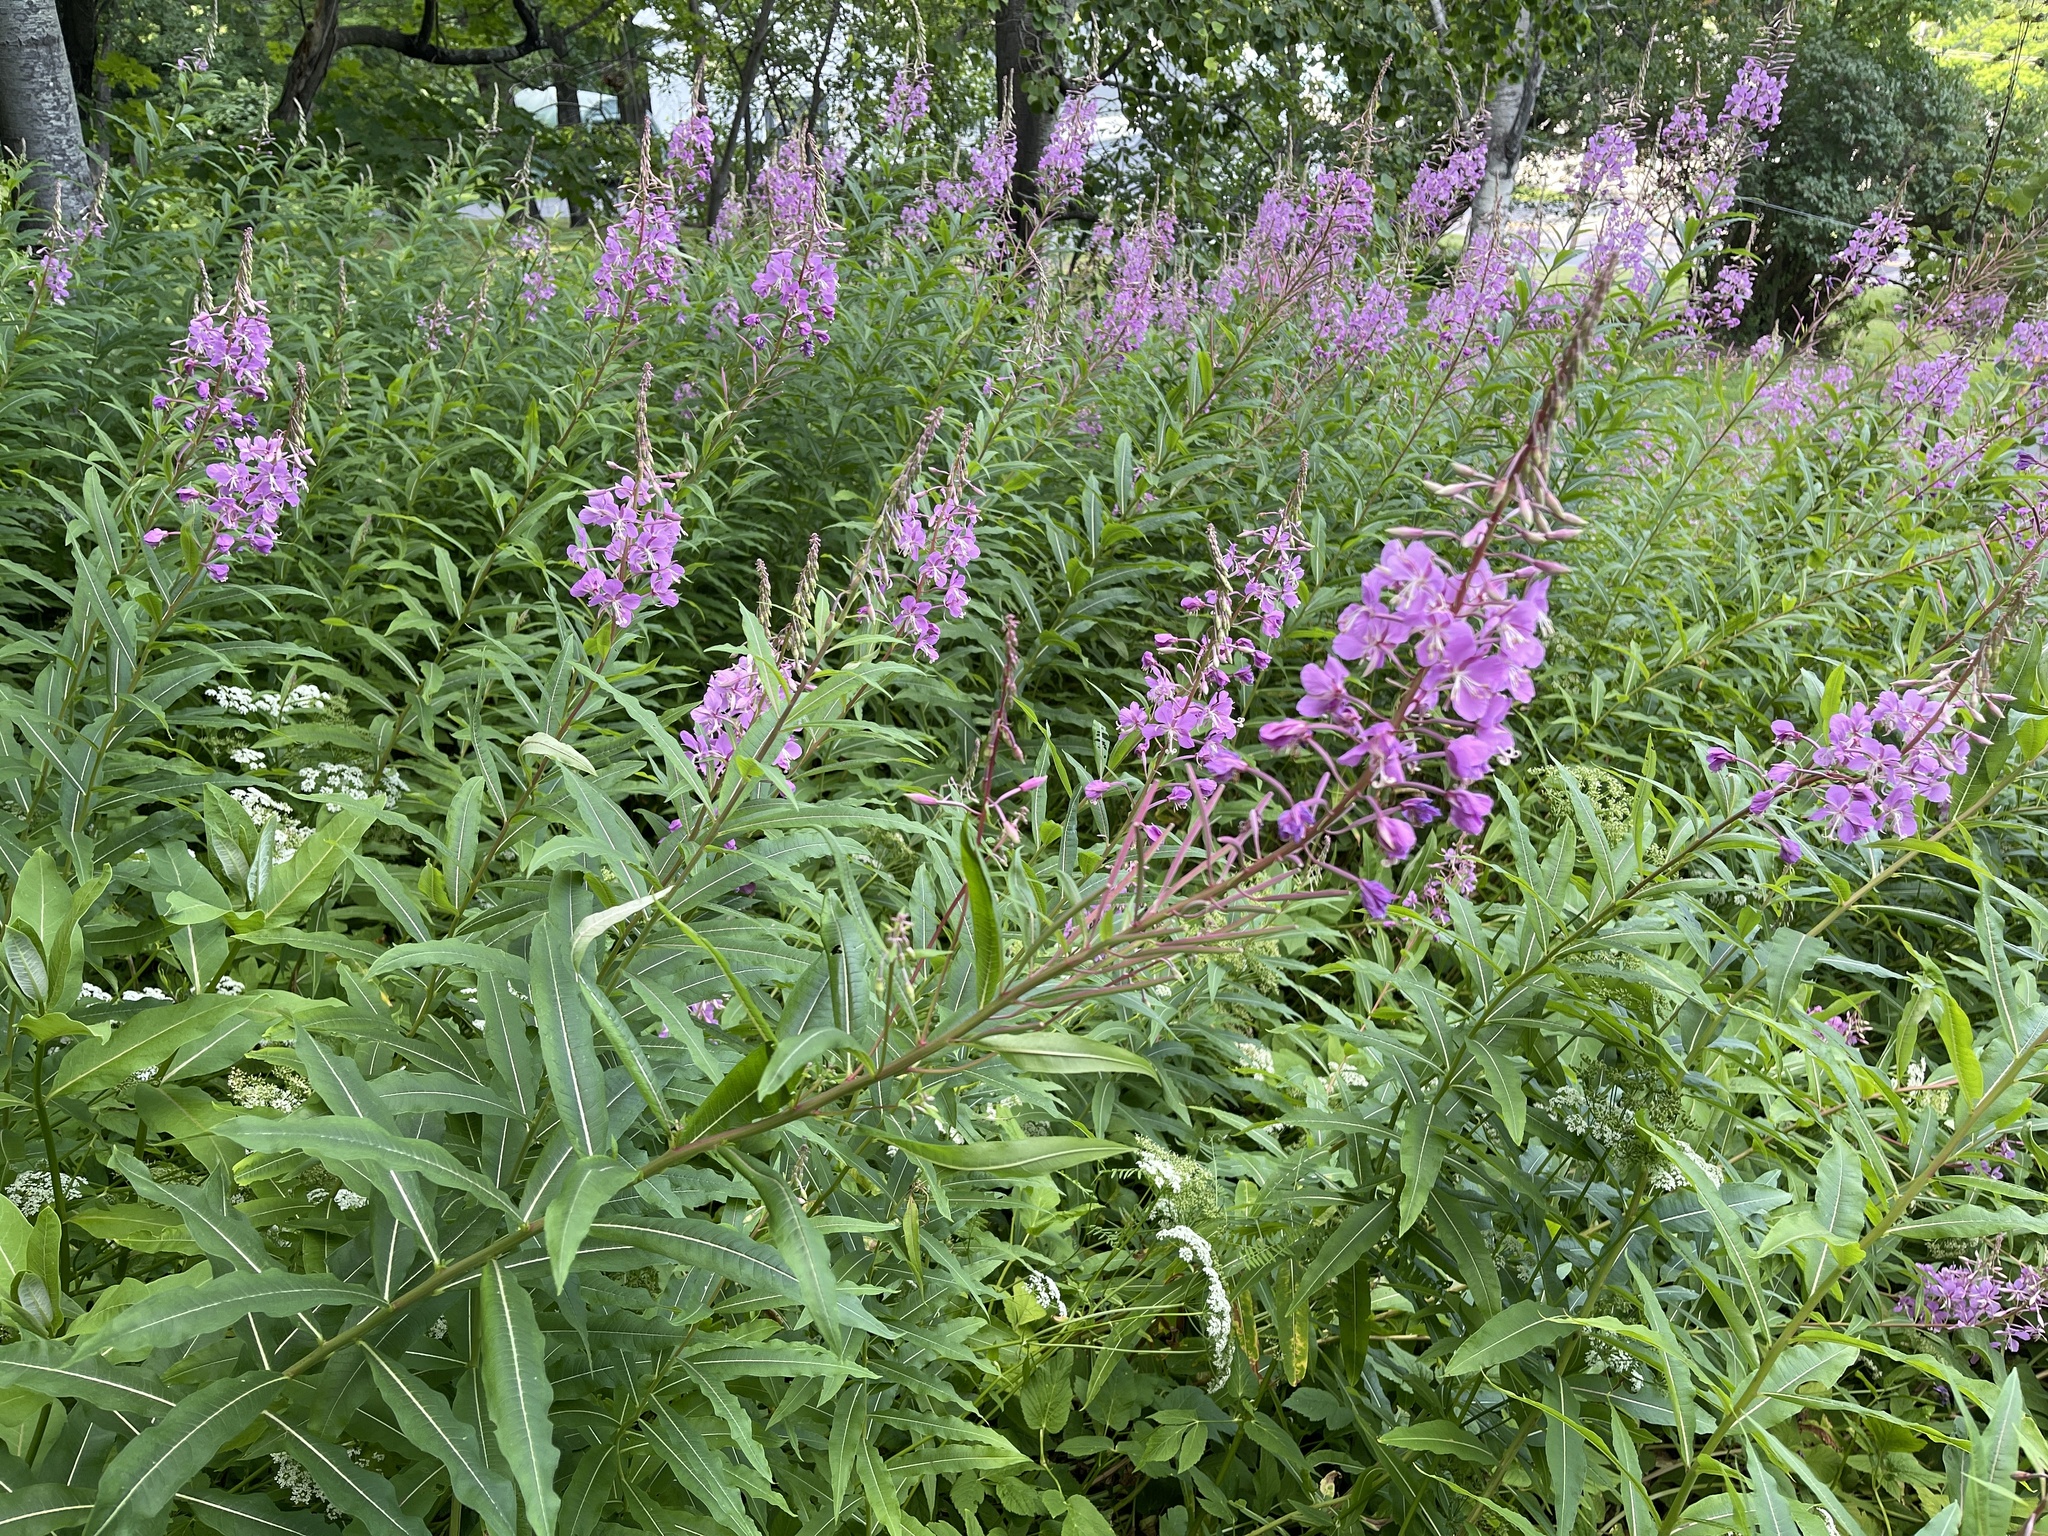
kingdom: Plantae
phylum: Tracheophyta
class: Magnoliopsida
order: Myrtales
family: Onagraceae
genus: Chamaenerion
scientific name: Chamaenerion angustifolium
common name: Fireweed
